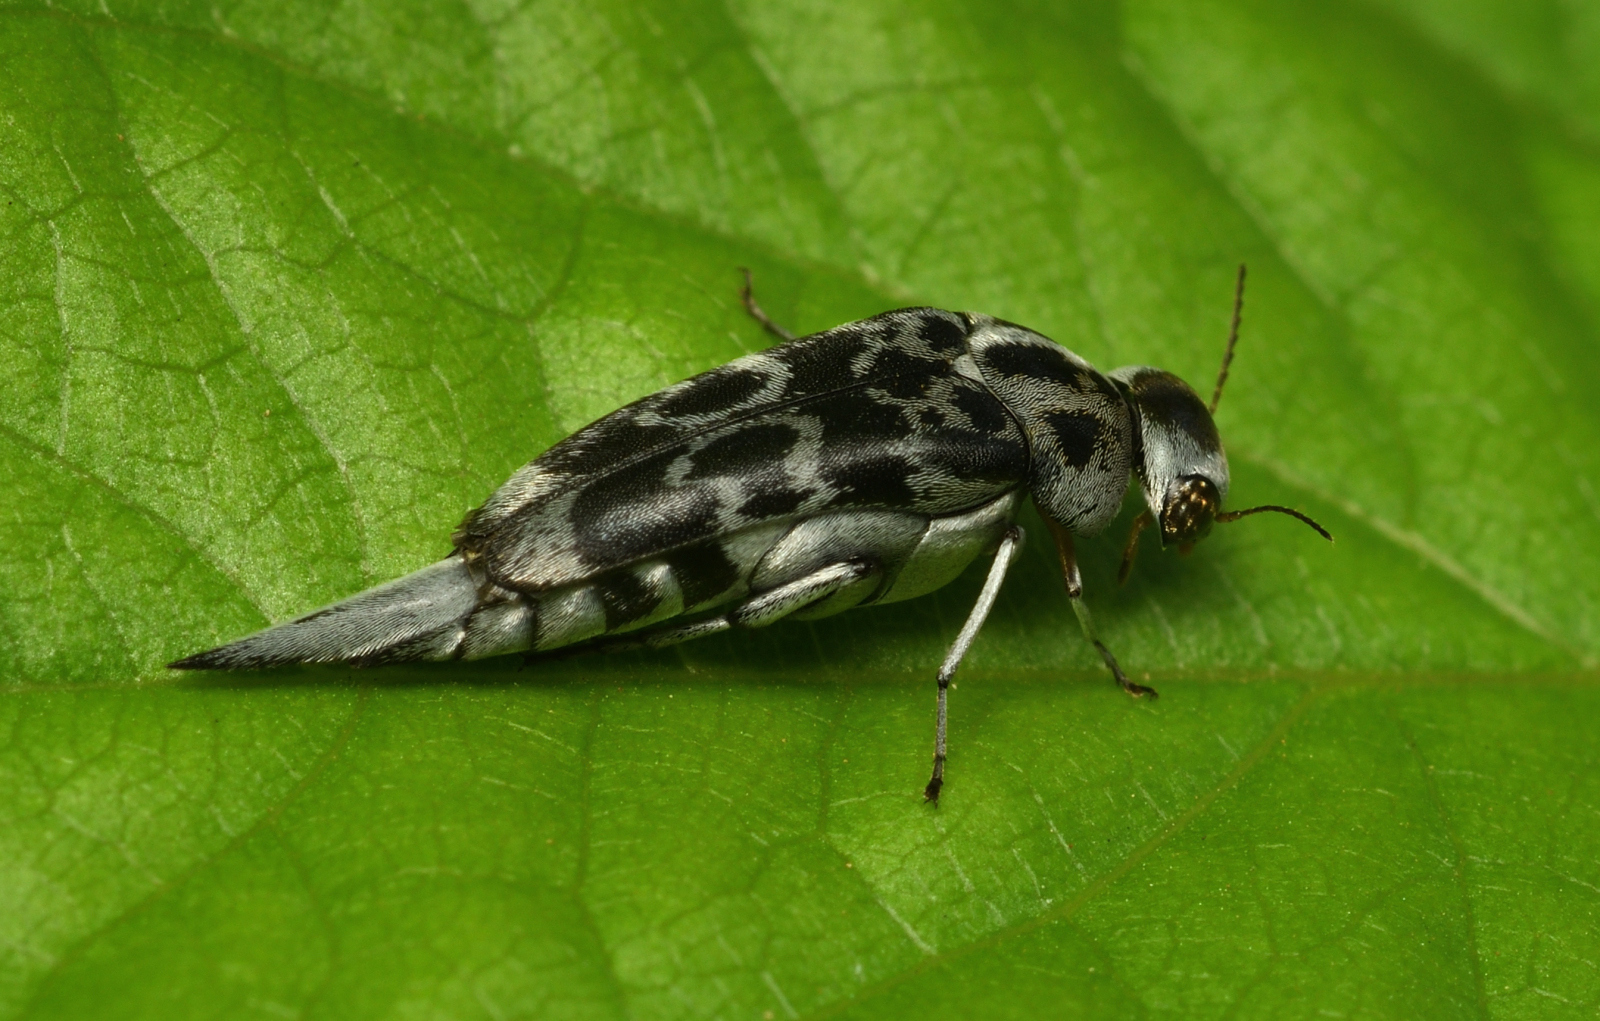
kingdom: Animalia
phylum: Arthropoda
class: Insecta
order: Coleoptera
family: Mordellidae
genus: Glipa
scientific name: Glipa
